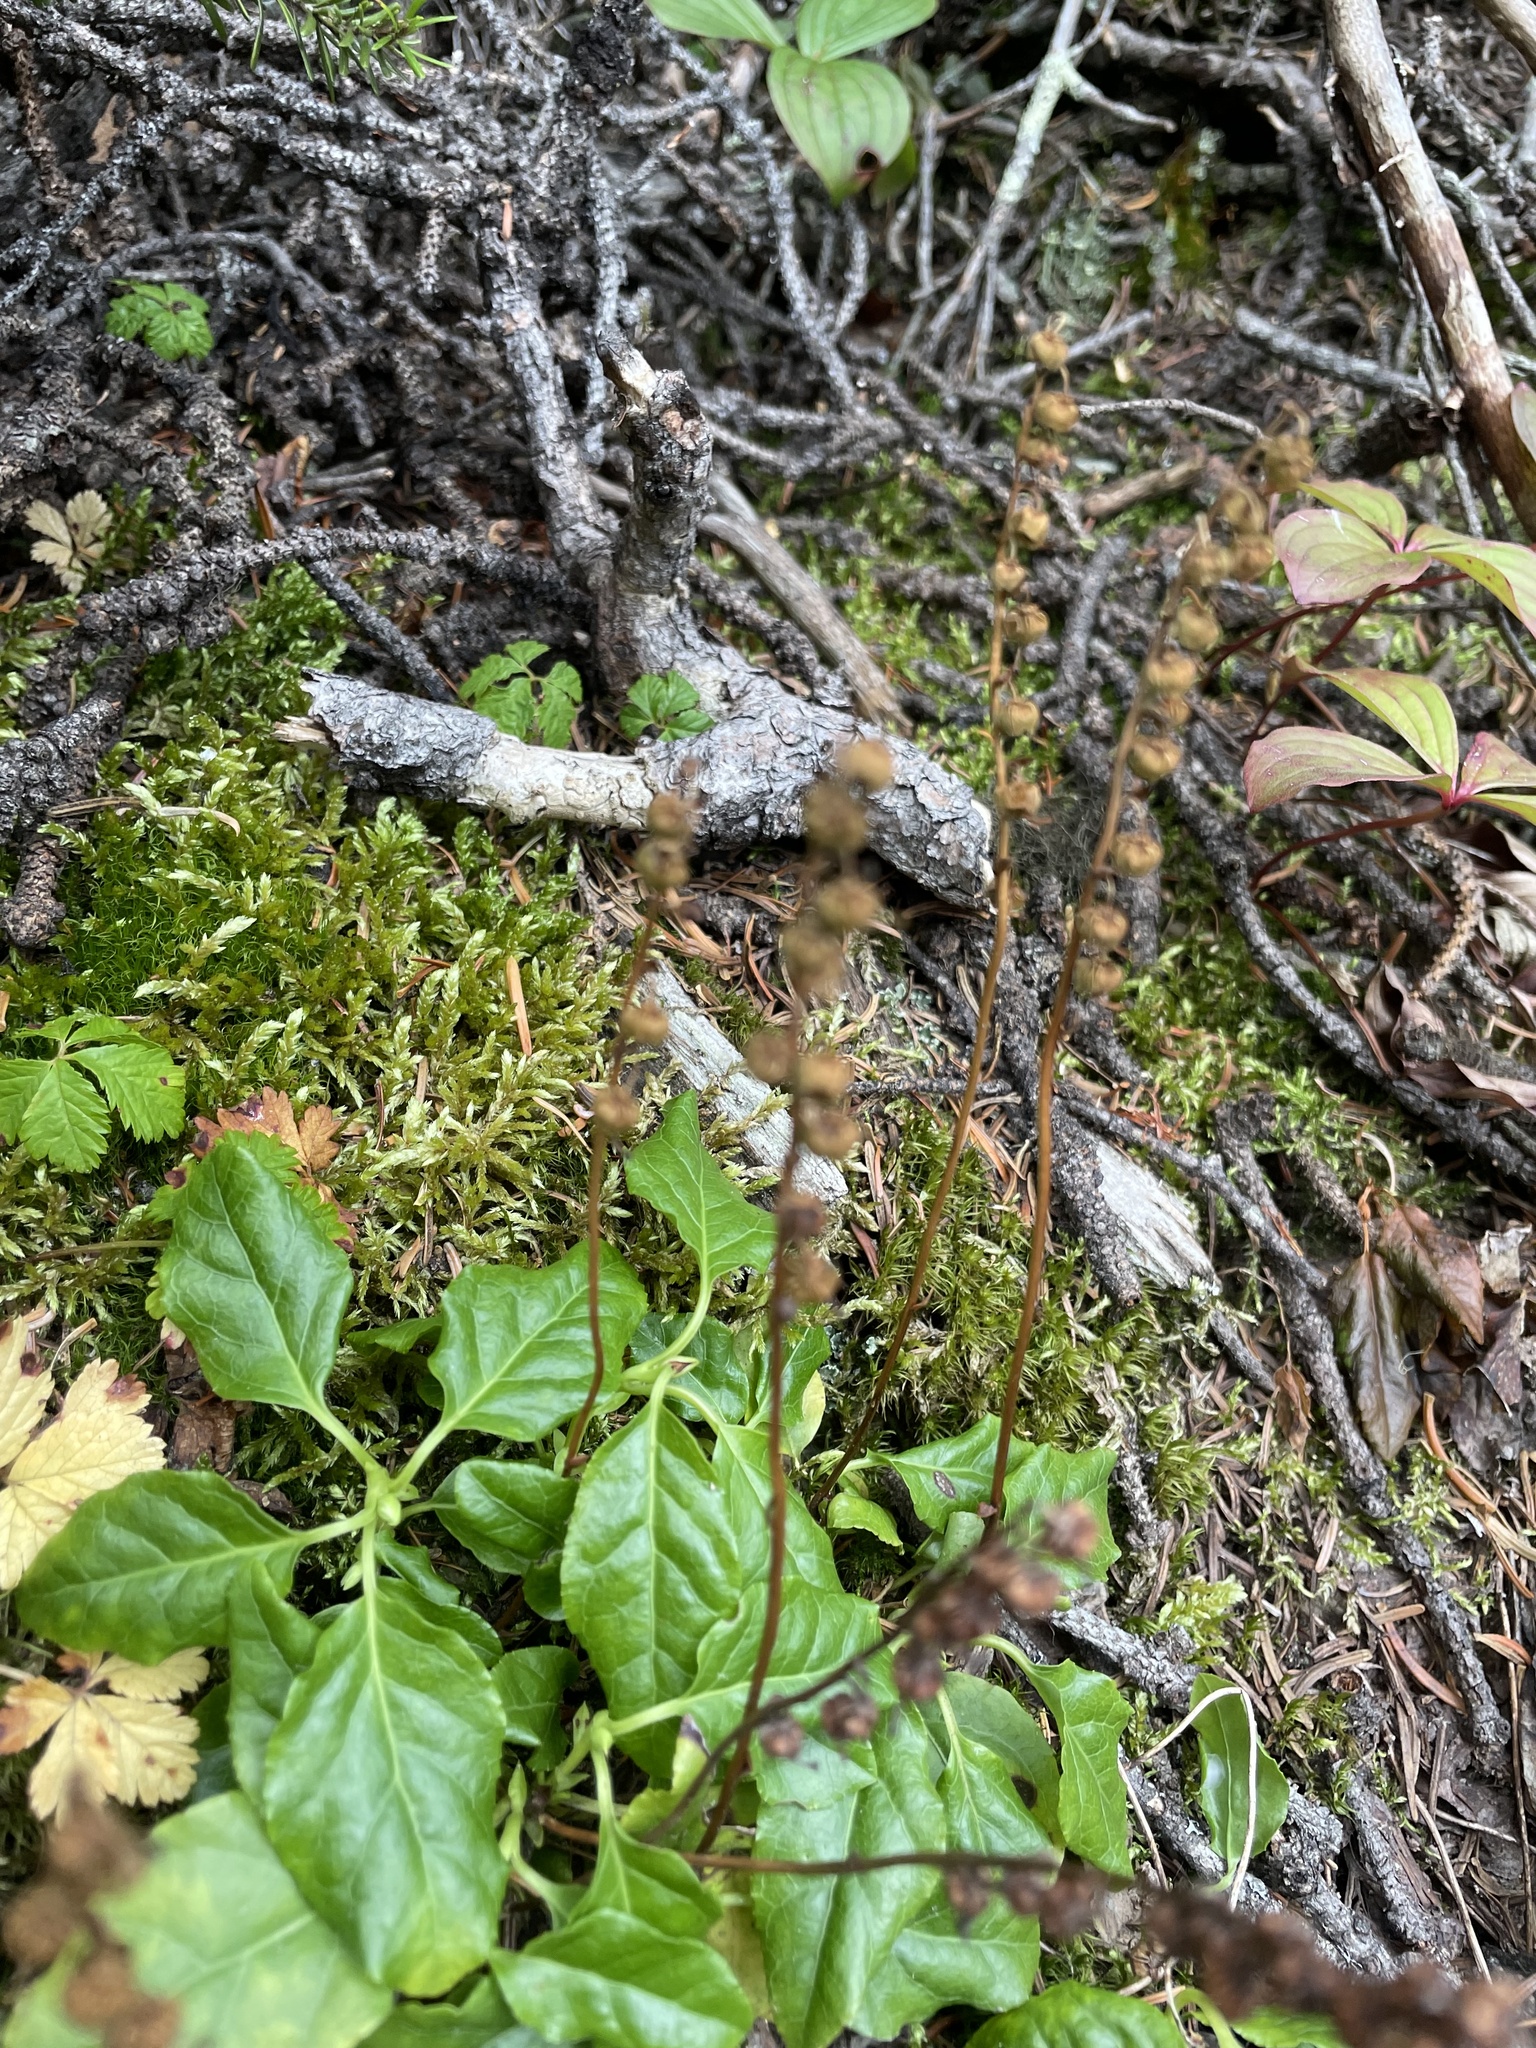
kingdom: Plantae
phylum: Tracheophyta
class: Magnoliopsida
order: Ericales
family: Ericaceae
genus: Orthilia
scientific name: Orthilia secunda
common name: One-sided orthilia
